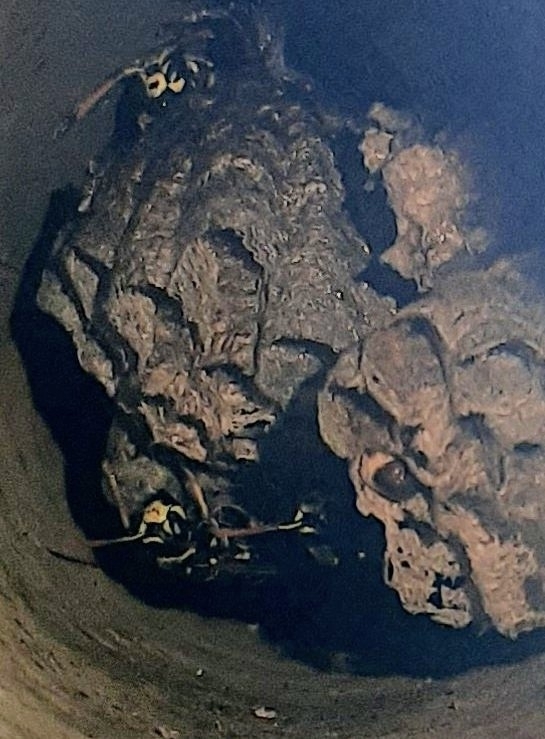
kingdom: Animalia
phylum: Arthropoda
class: Insecta
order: Hymenoptera
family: Eumenidae
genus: Polistes
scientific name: Polistes dominula
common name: Paper wasp
